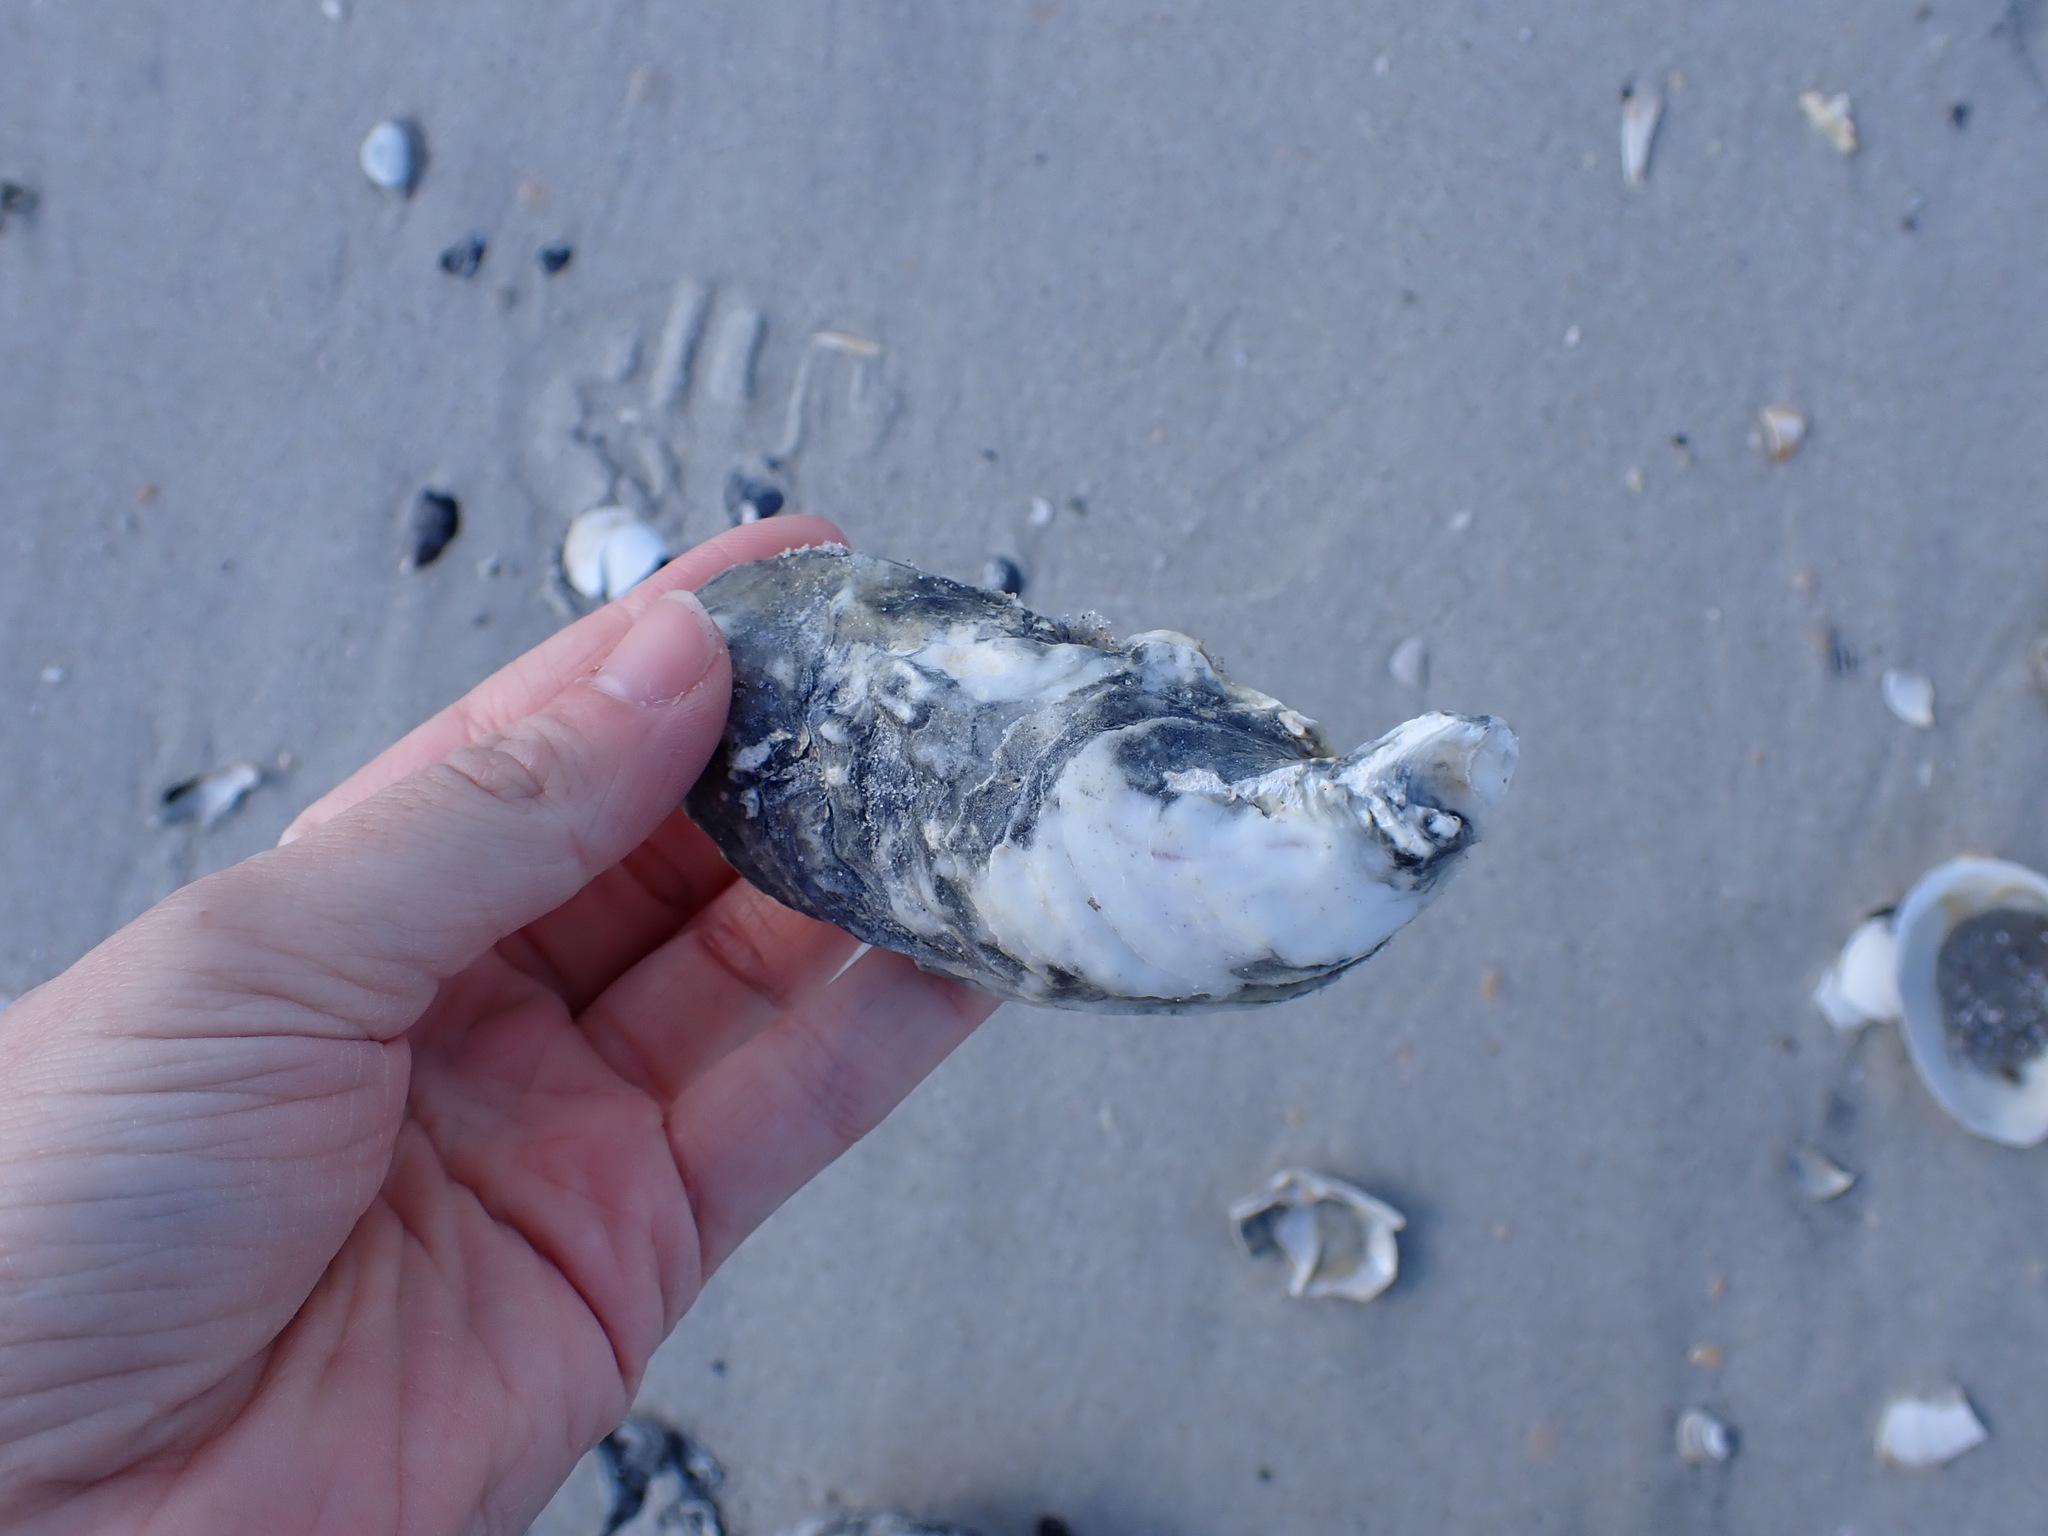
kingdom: Animalia
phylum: Mollusca
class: Bivalvia
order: Ostreida
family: Ostreidae
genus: Crassostrea
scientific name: Crassostrea virginica
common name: American oyster
